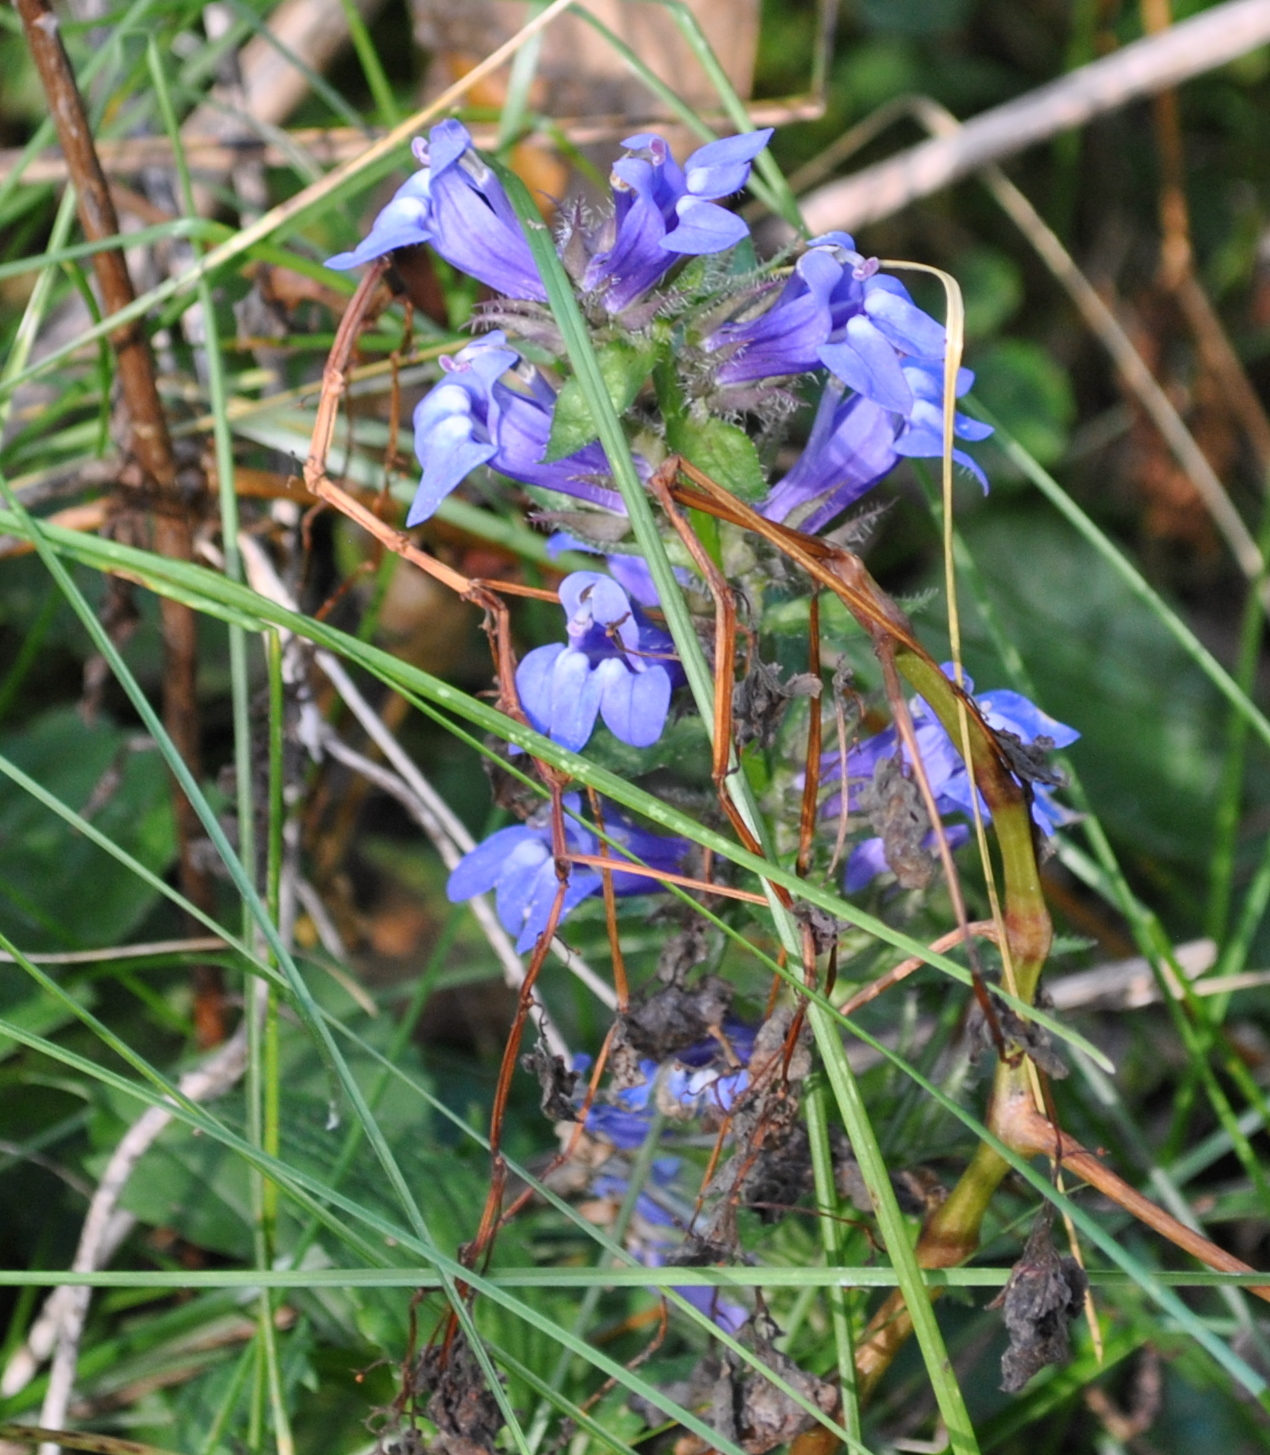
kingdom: Plantae
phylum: Tracheophyta
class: Magnoliopsida
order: Asterales
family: Campanulaceae
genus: Lobelia
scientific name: Lobelia siphilitica
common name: Great lobelia
